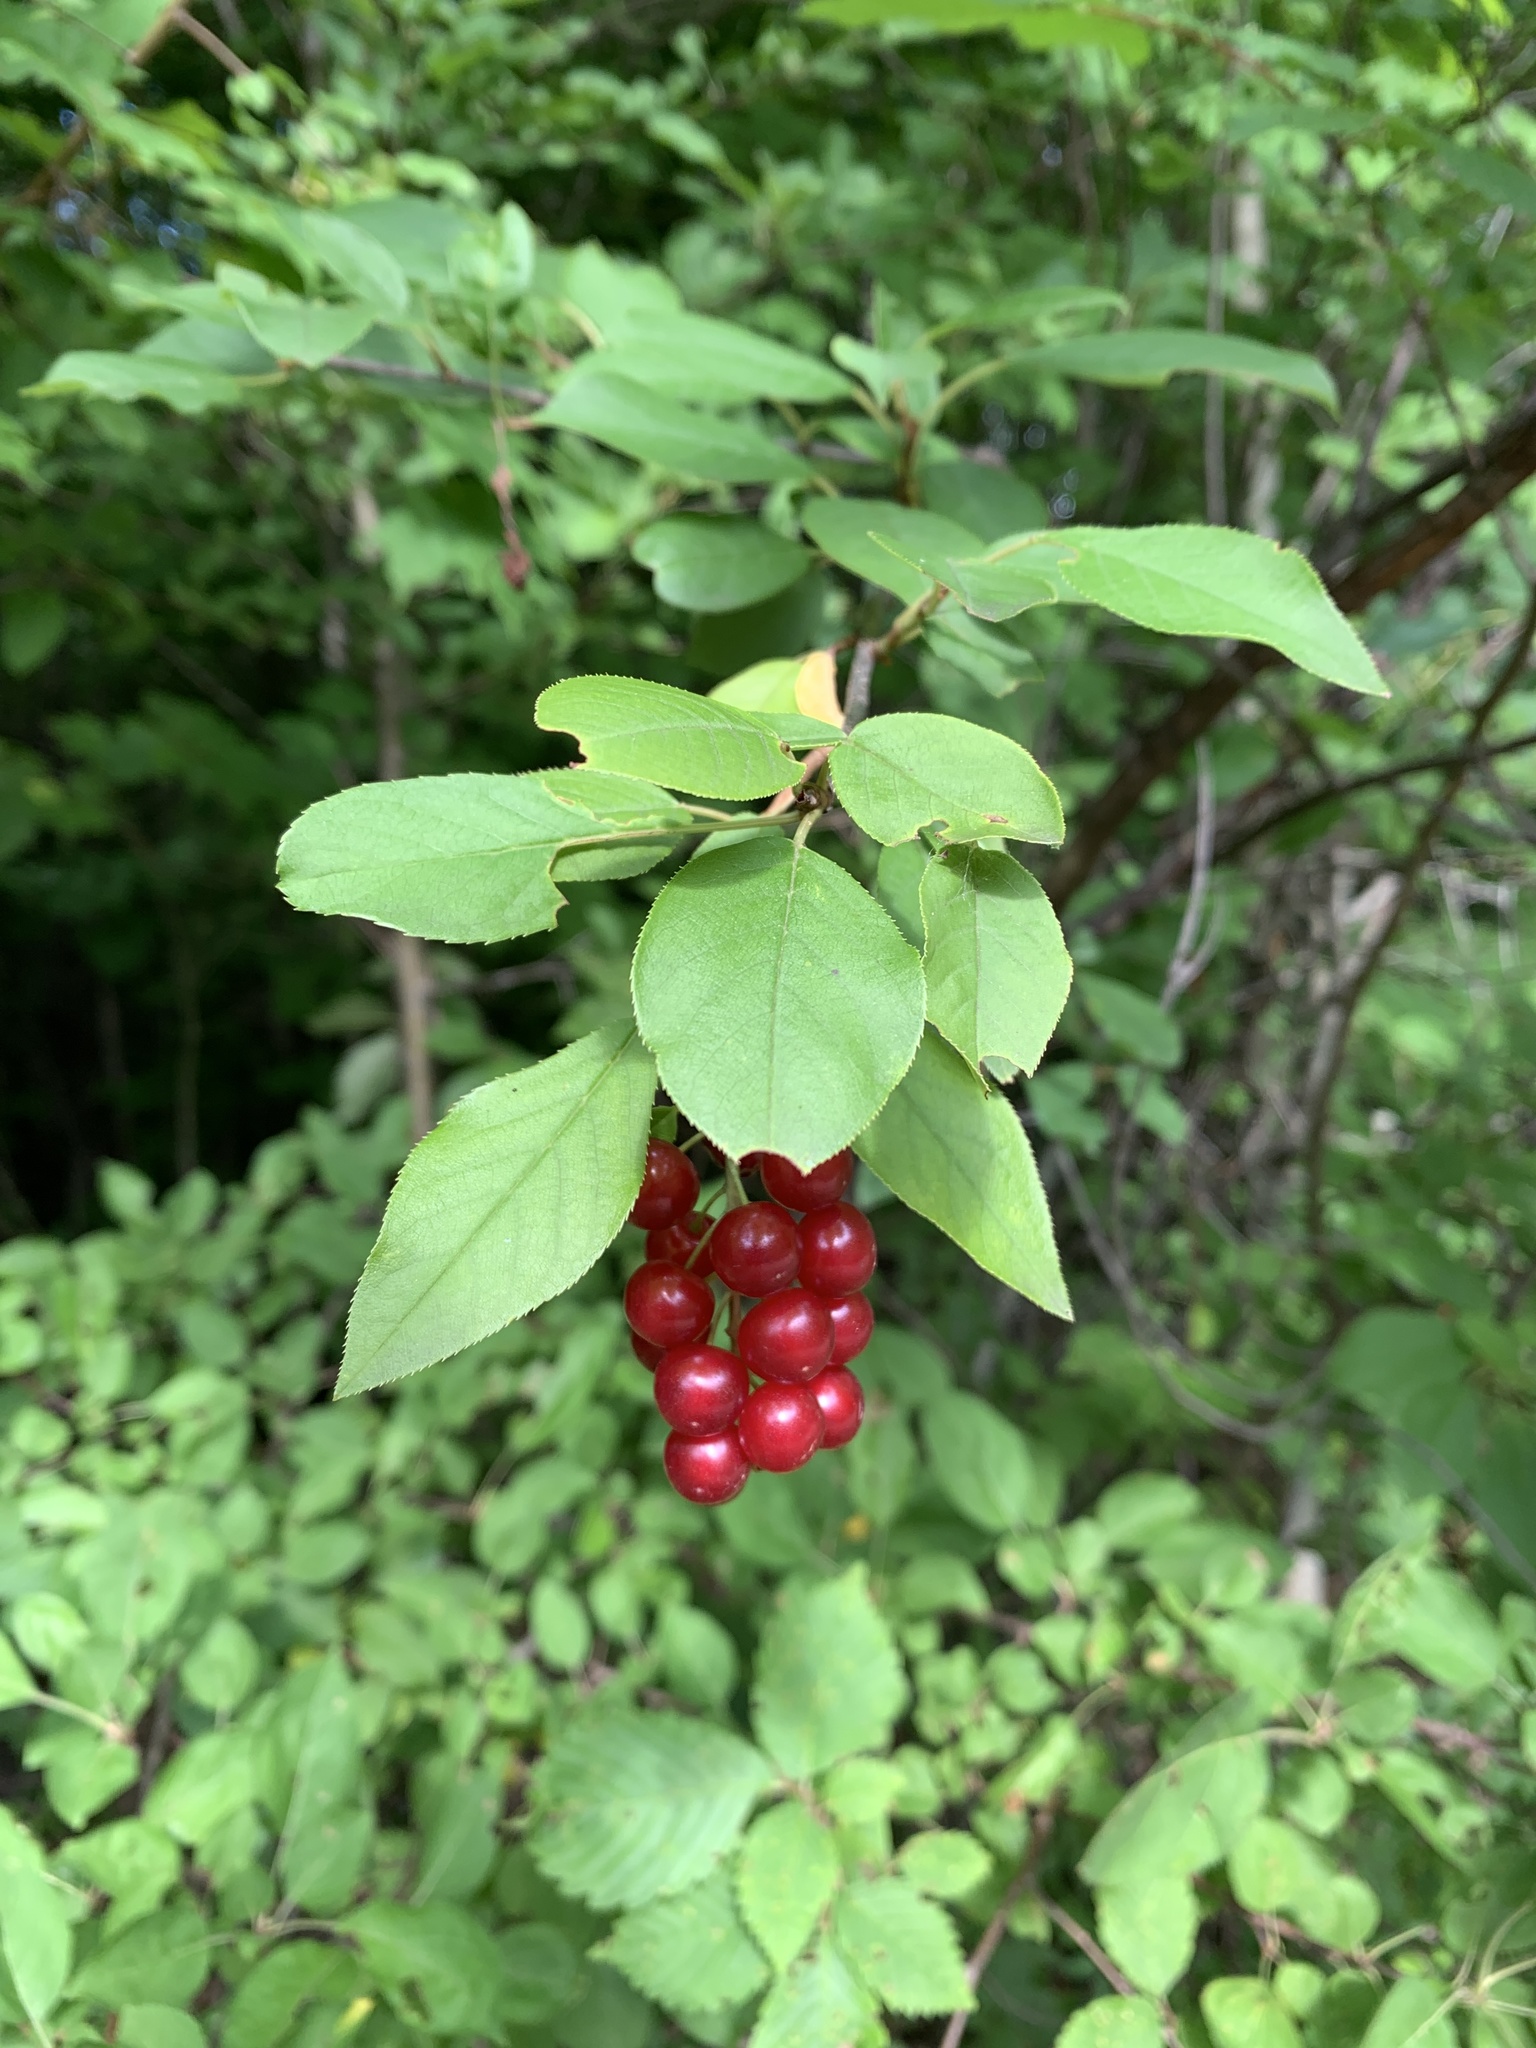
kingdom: Plantae
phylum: Tracheophyta
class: Magnoliopsida
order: Rosales
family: Rosaceae
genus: Prunus
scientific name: Prunus virginiana
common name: Chokecherry
